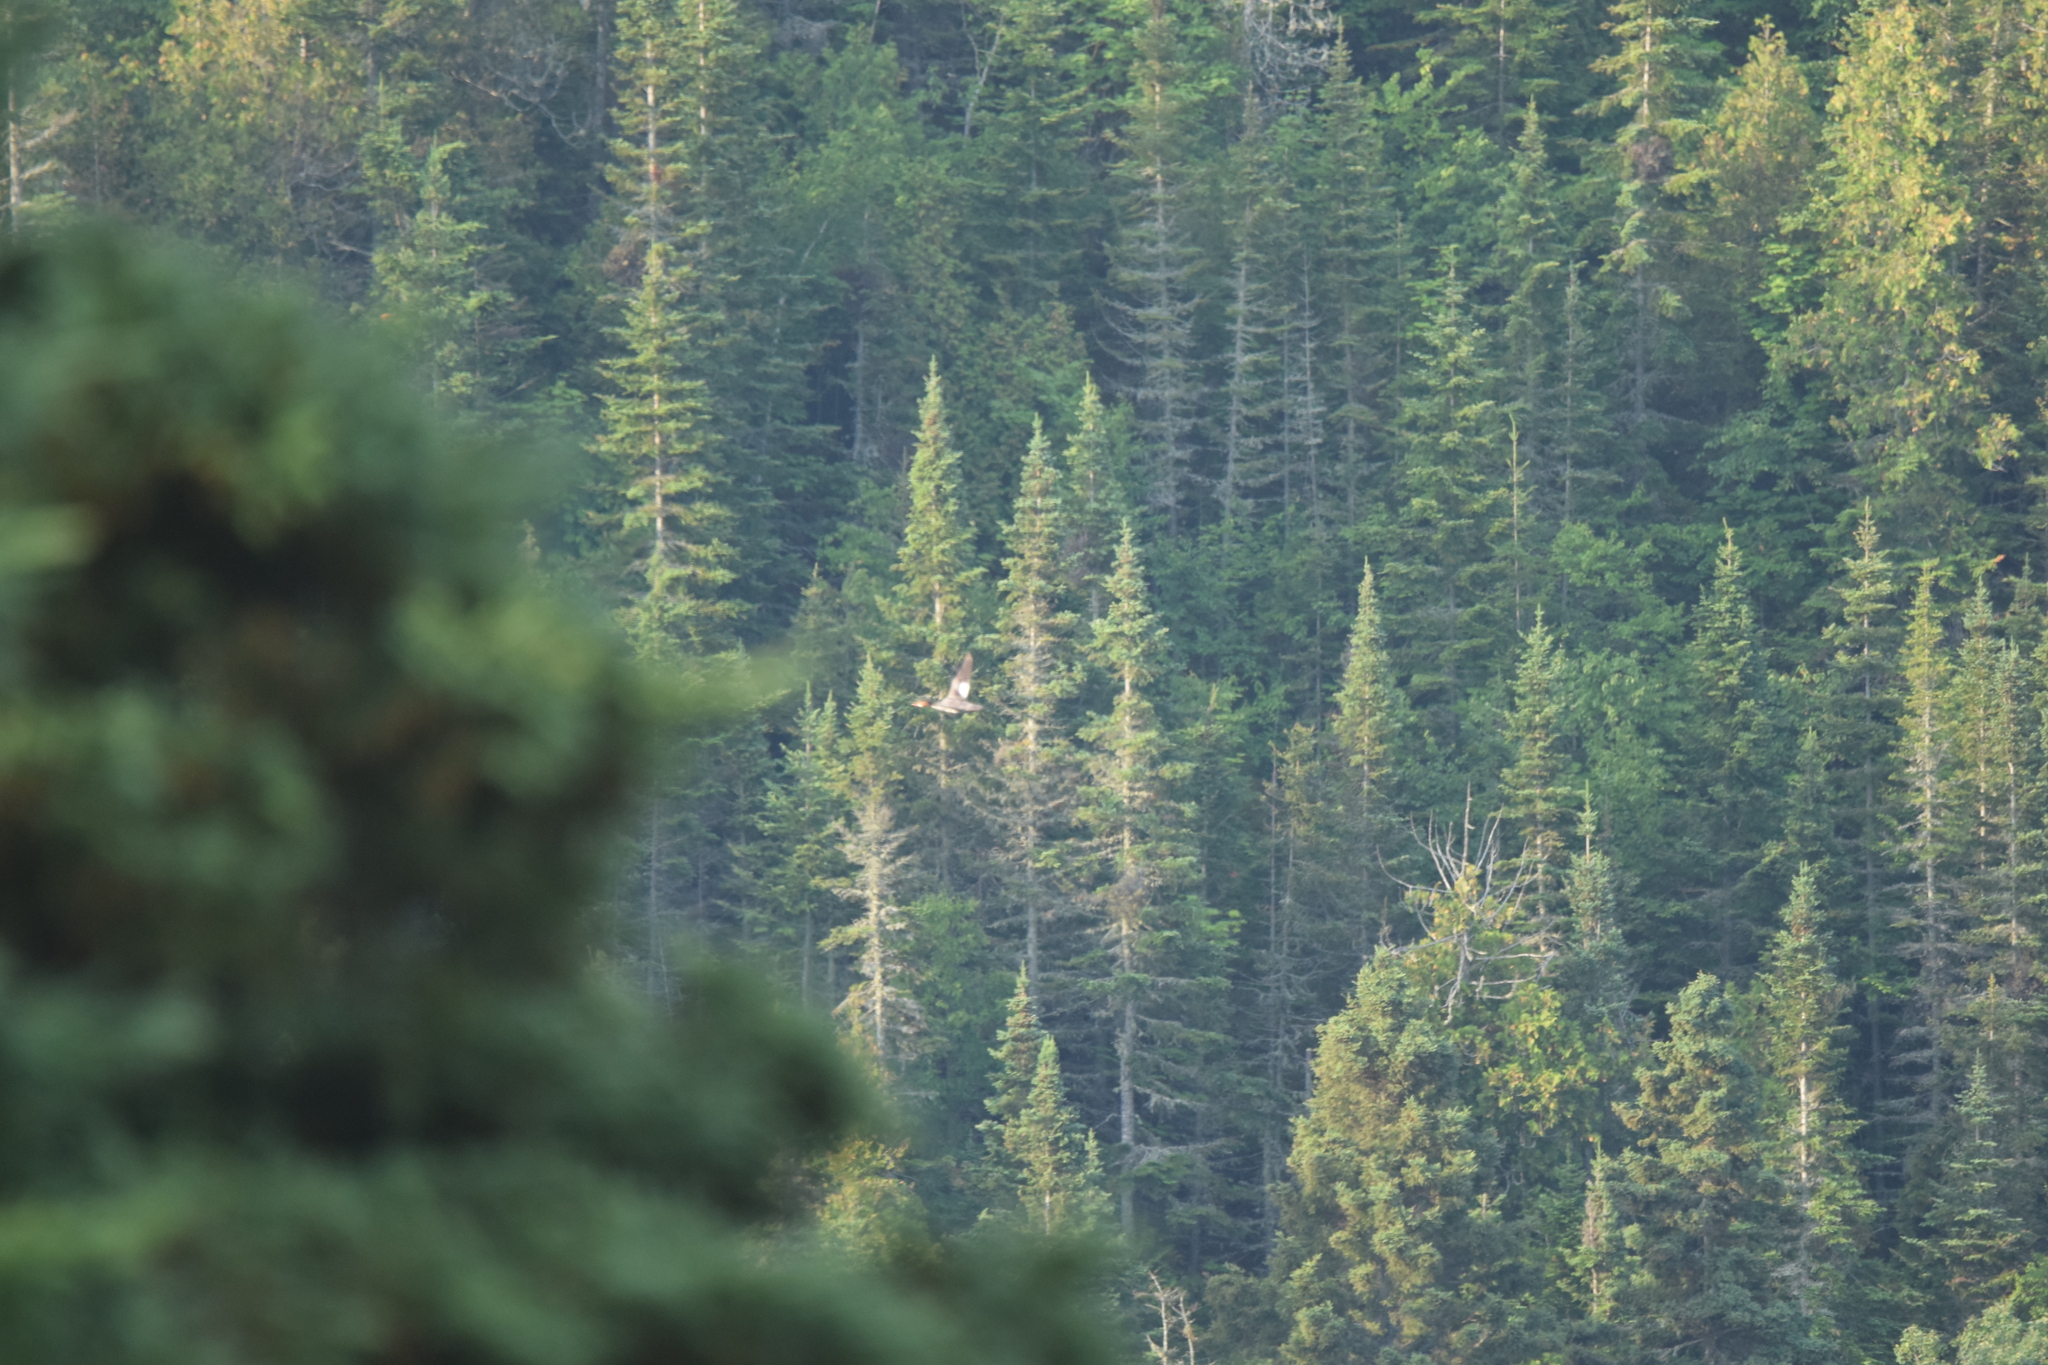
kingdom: Animalia
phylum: Chordata
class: Aves
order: Anseriformes
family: Anatidae
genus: Mergus
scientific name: Mergus merganser
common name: Common merganser
